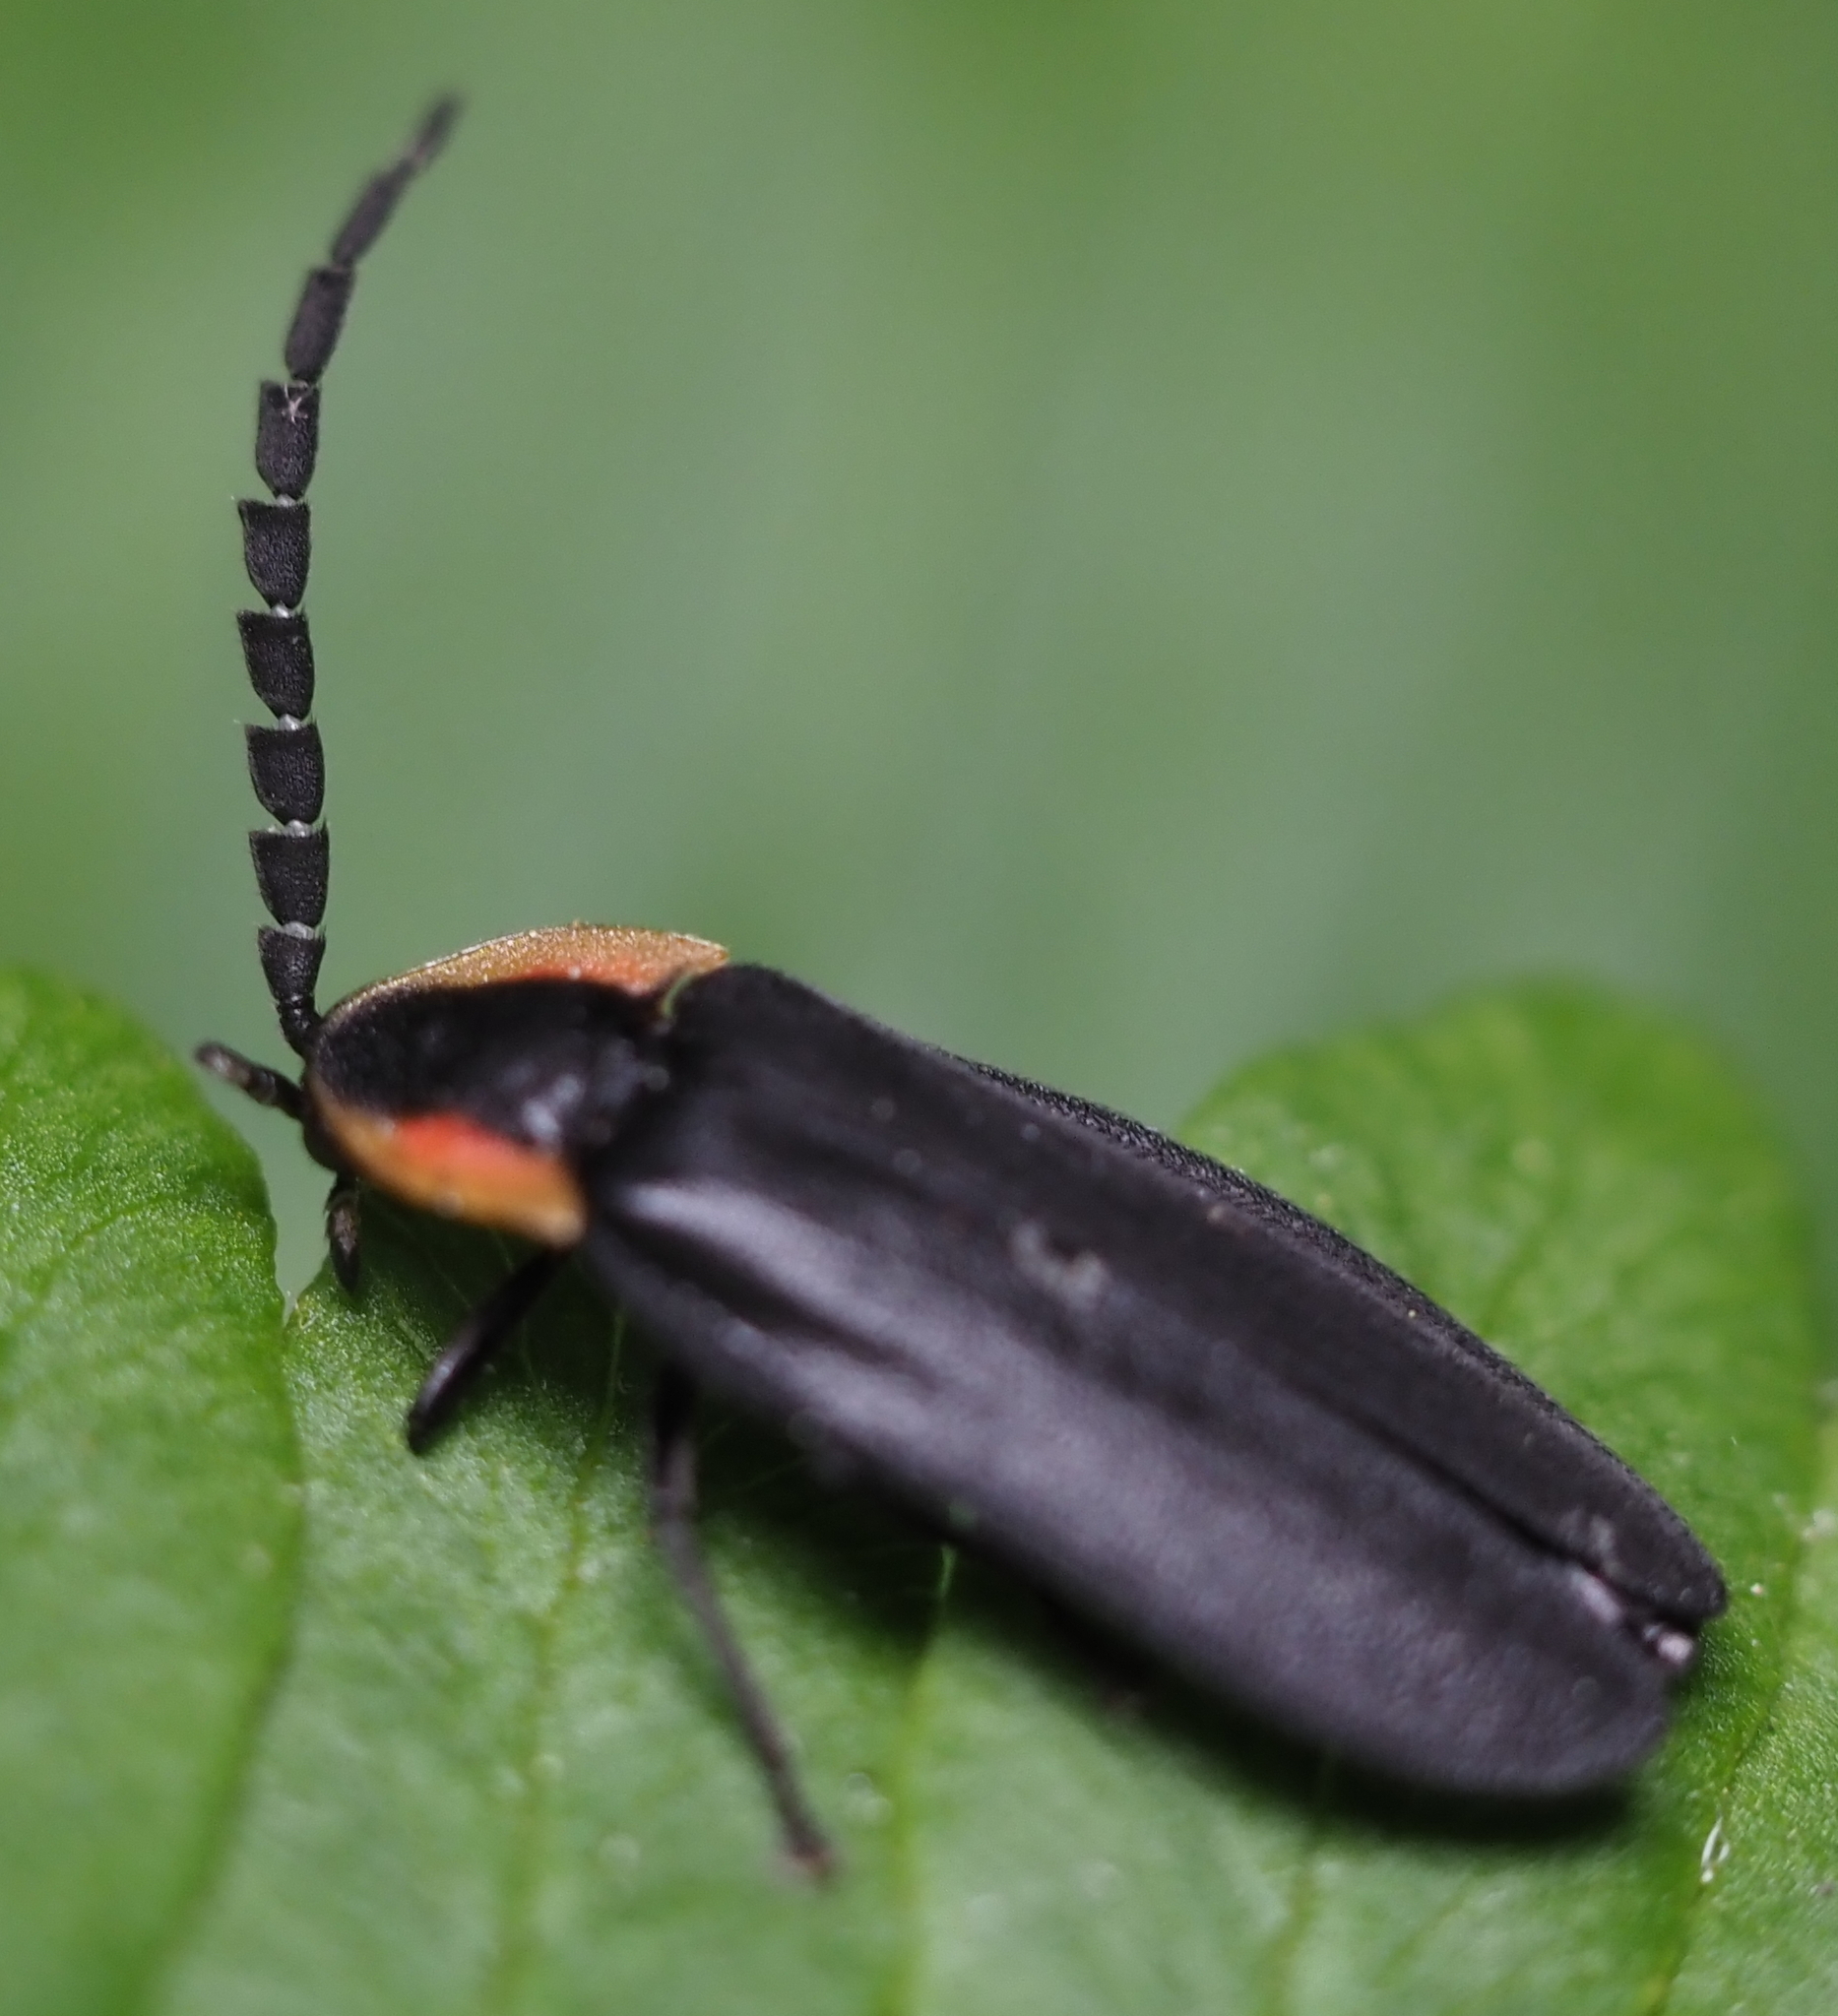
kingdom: Animalia
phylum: Arthropoda
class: Insecta
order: Coleoptera
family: Lampyridae
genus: Lucidota
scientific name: Lucidota atra
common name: Black firefly
